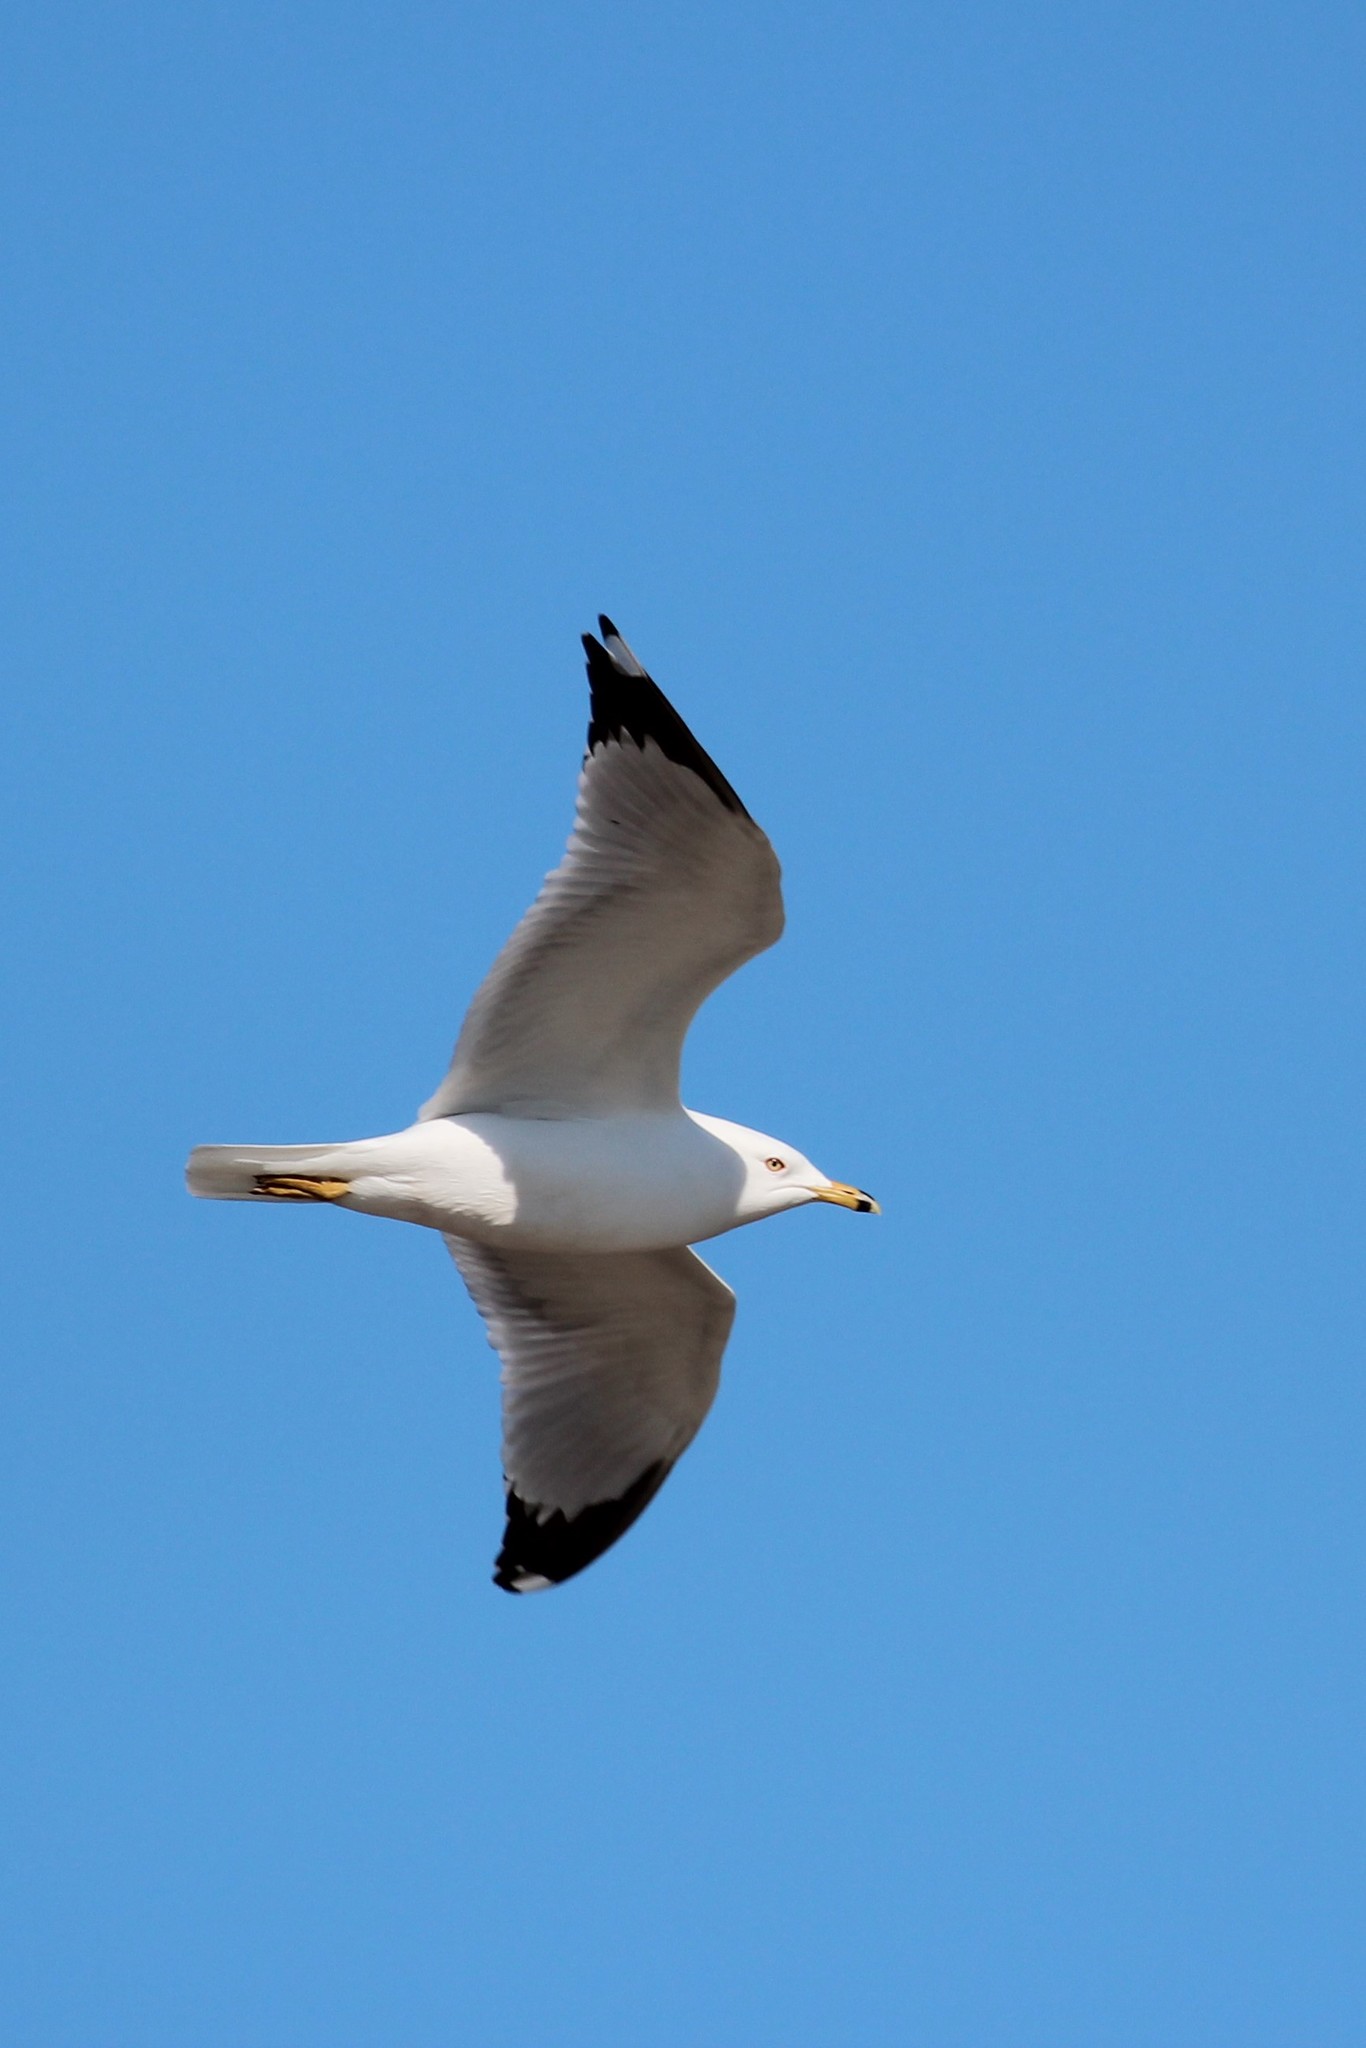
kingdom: Animalia
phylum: Chordata
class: Aves
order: Charadriiformes
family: Laridae
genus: Larus
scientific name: Larus delawarensis
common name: Ring-billed gull
